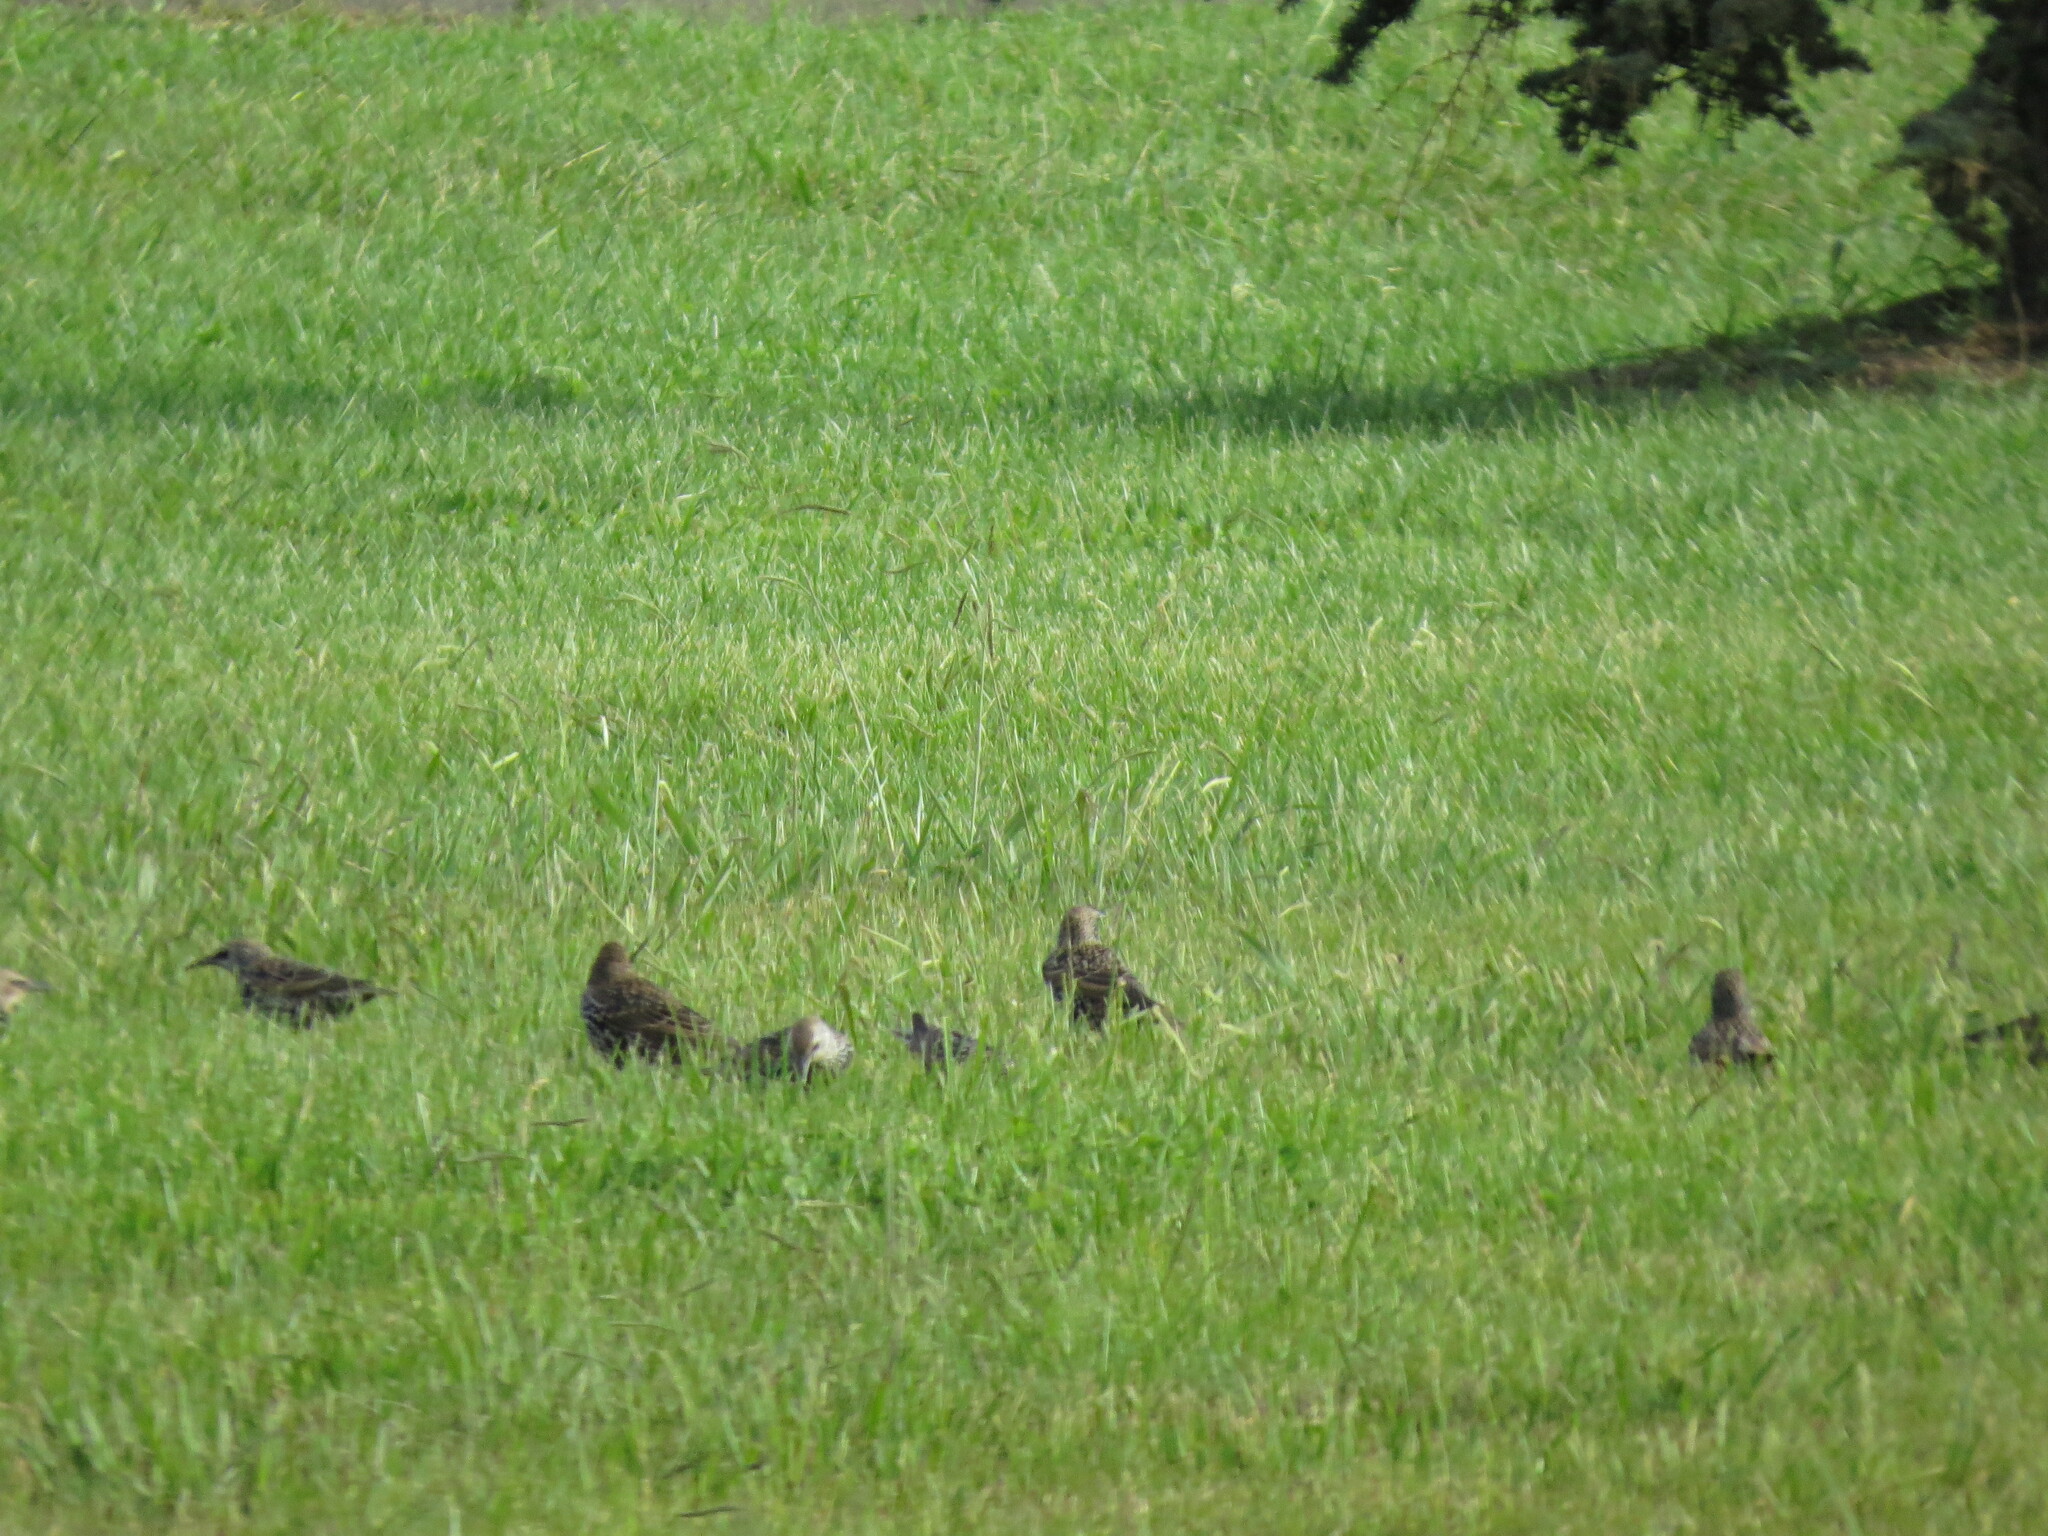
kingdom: Animalia
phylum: Chordata
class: Aves
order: Passeriformes
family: Sturnidae
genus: Sturnus
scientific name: Sturnus vulgaris
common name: Common starling
